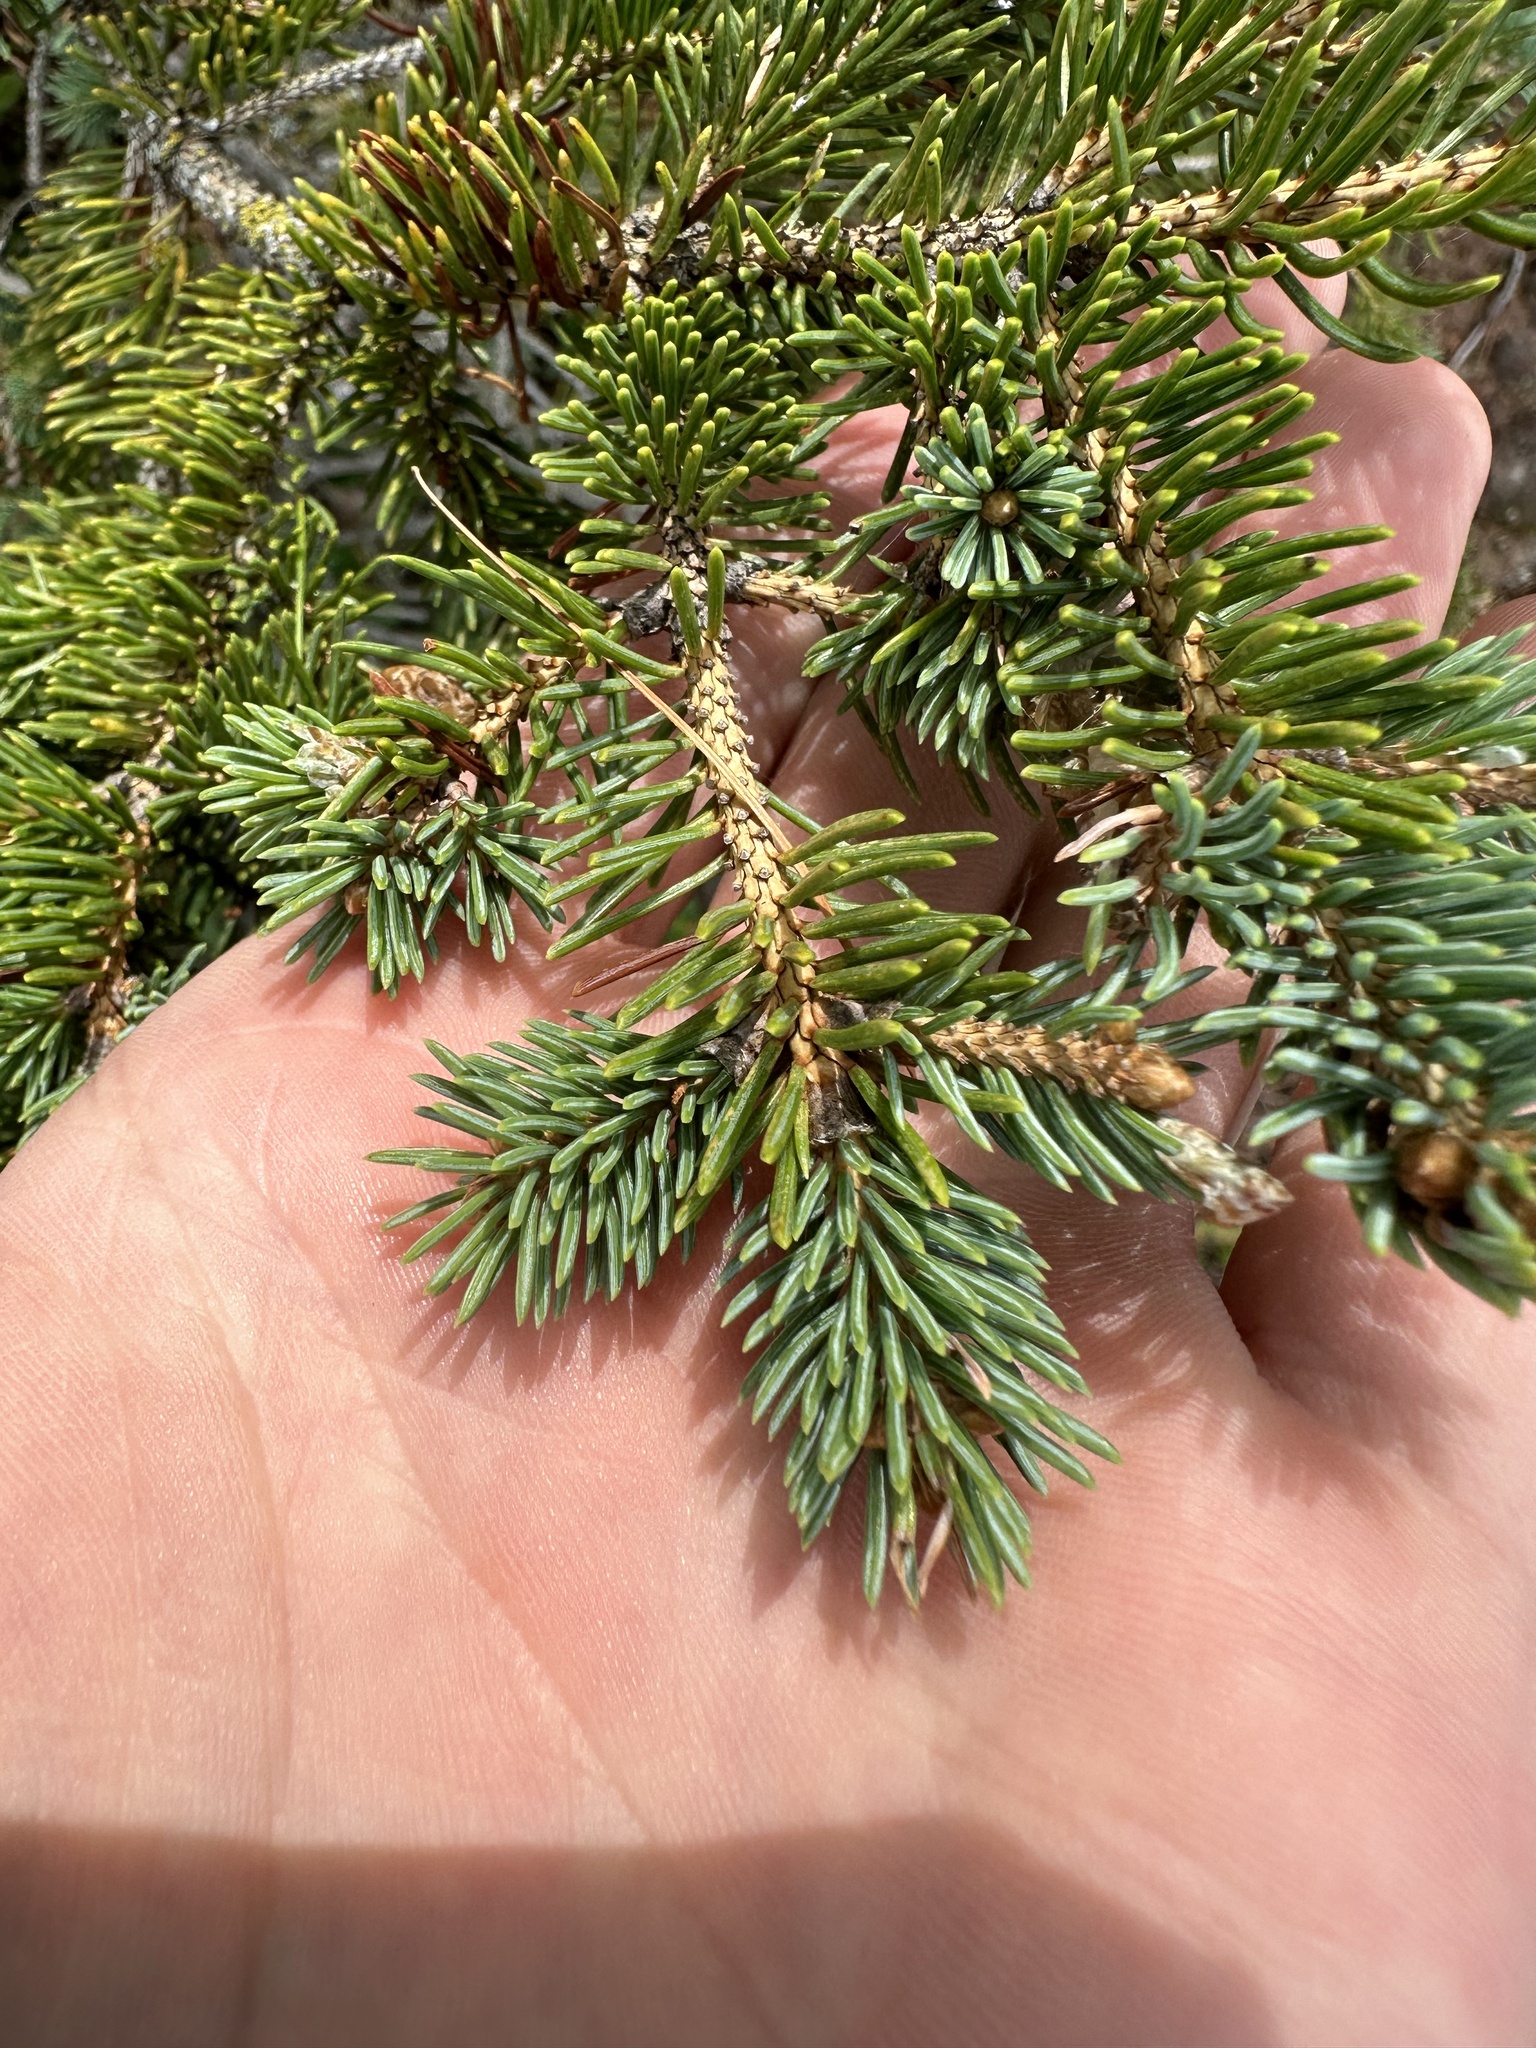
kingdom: Plantae
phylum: Tracheophyta
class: Pinopsida
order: Pinales
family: Pinaceae
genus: Picea
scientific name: Picea glauca
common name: White spruce
